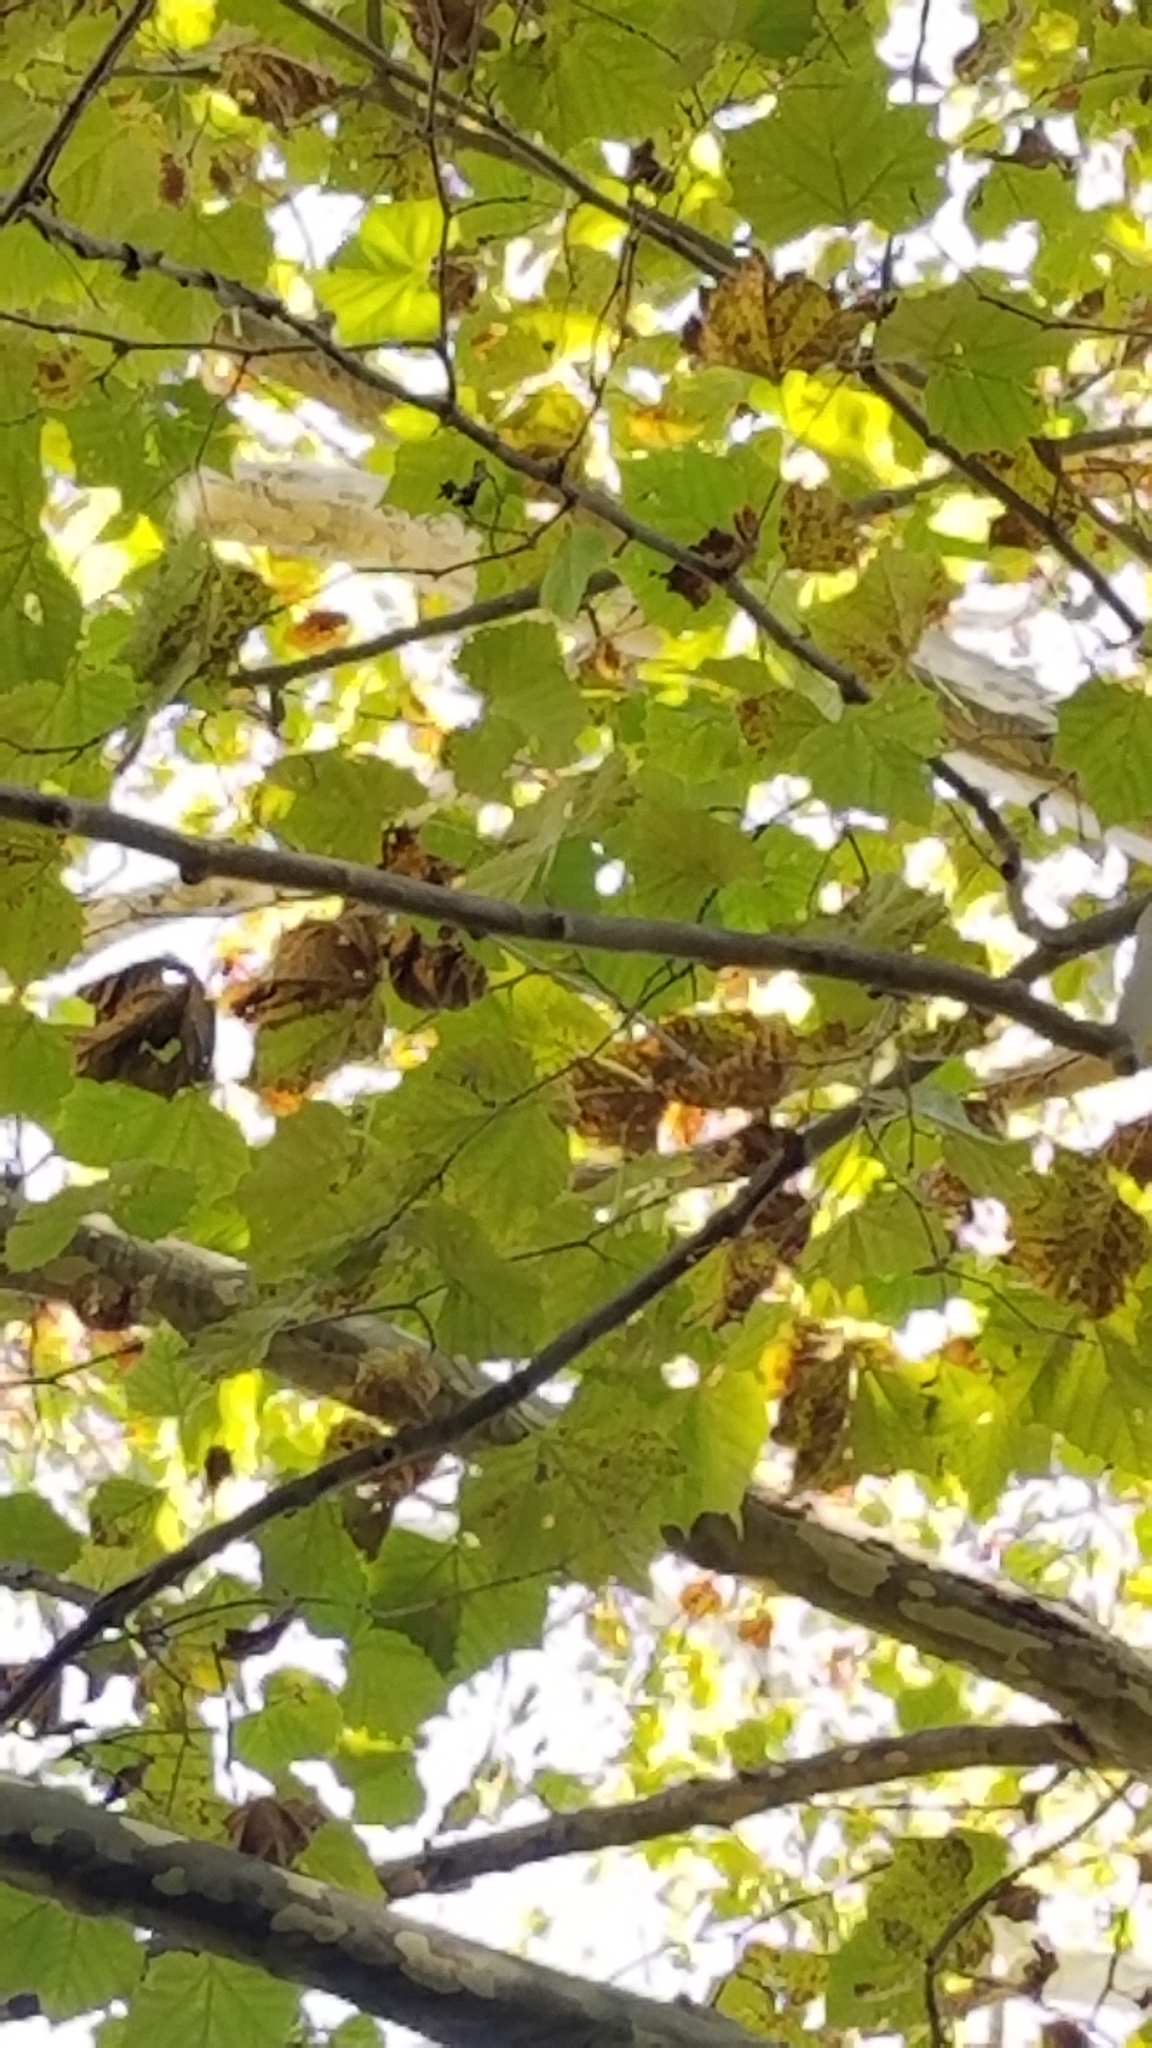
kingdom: Plantae
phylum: Tracheophyta
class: Magnoliopsida
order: Proteales
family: Platanaceae
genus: Platanus
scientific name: Platanus occidentalis
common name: American sycamore
